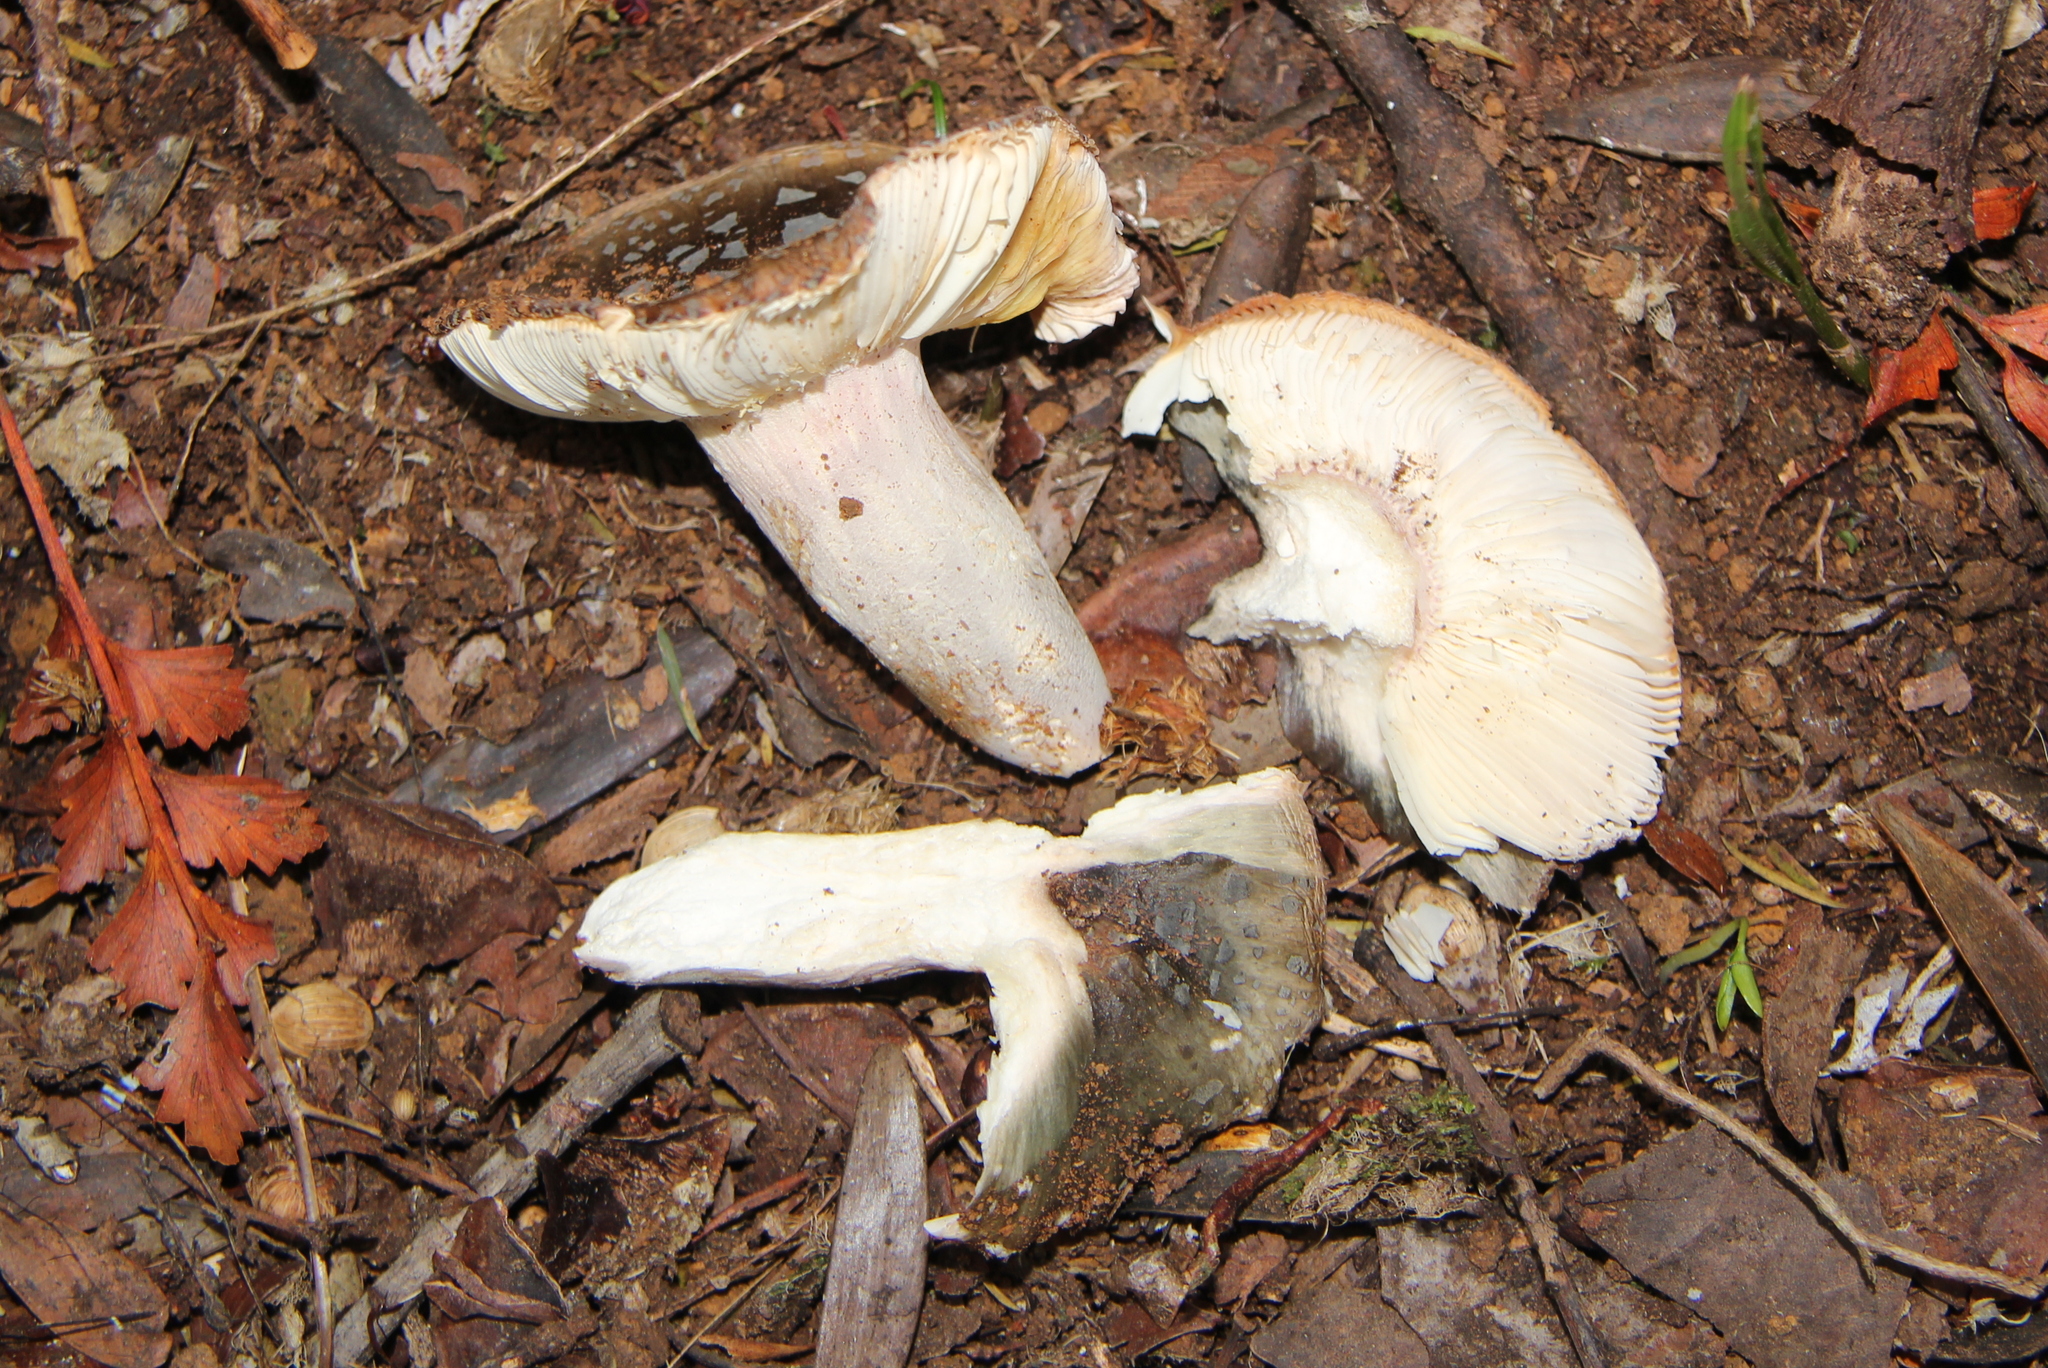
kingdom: Fungi
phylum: Basidiomycota
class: Agaricomycetes
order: Russulales
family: Russulaceae
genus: Russula
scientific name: Russula griseoviridis
